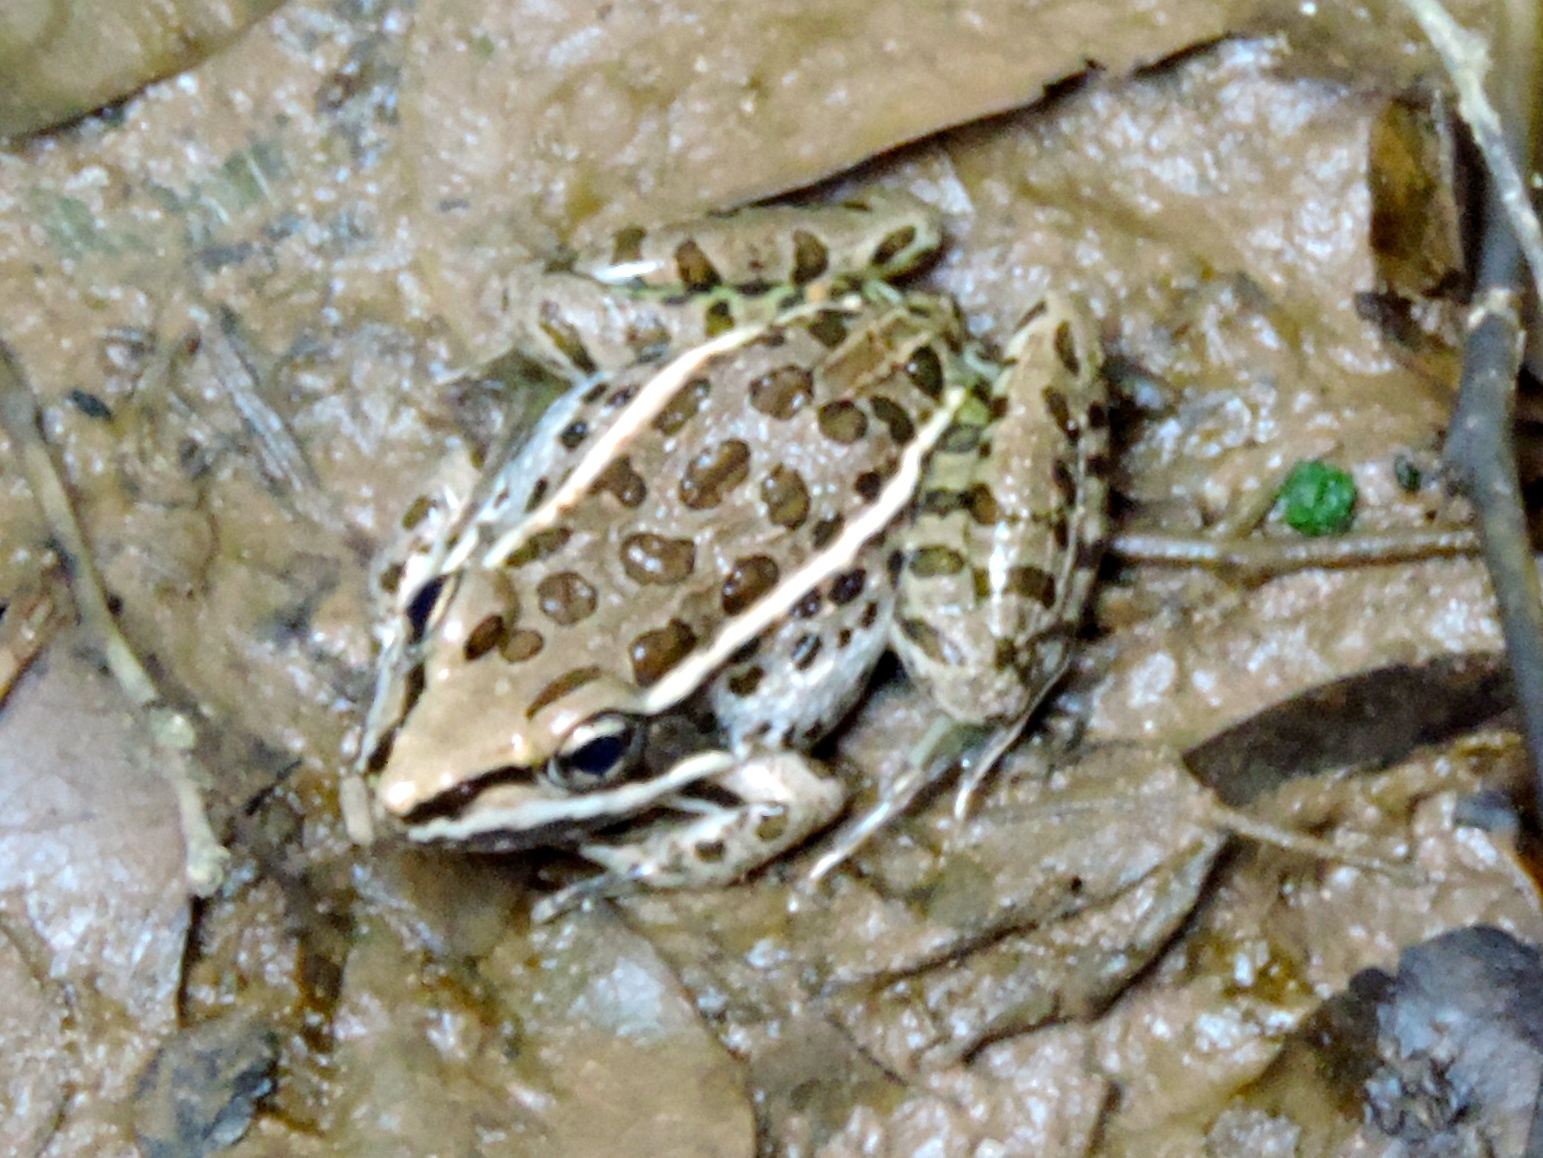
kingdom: Animalia
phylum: Chordata
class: Amphibia
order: Anura
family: Ranidae
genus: Lithobates
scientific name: Lithobates magnaocularis
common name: Northwest mexico leopard frog
